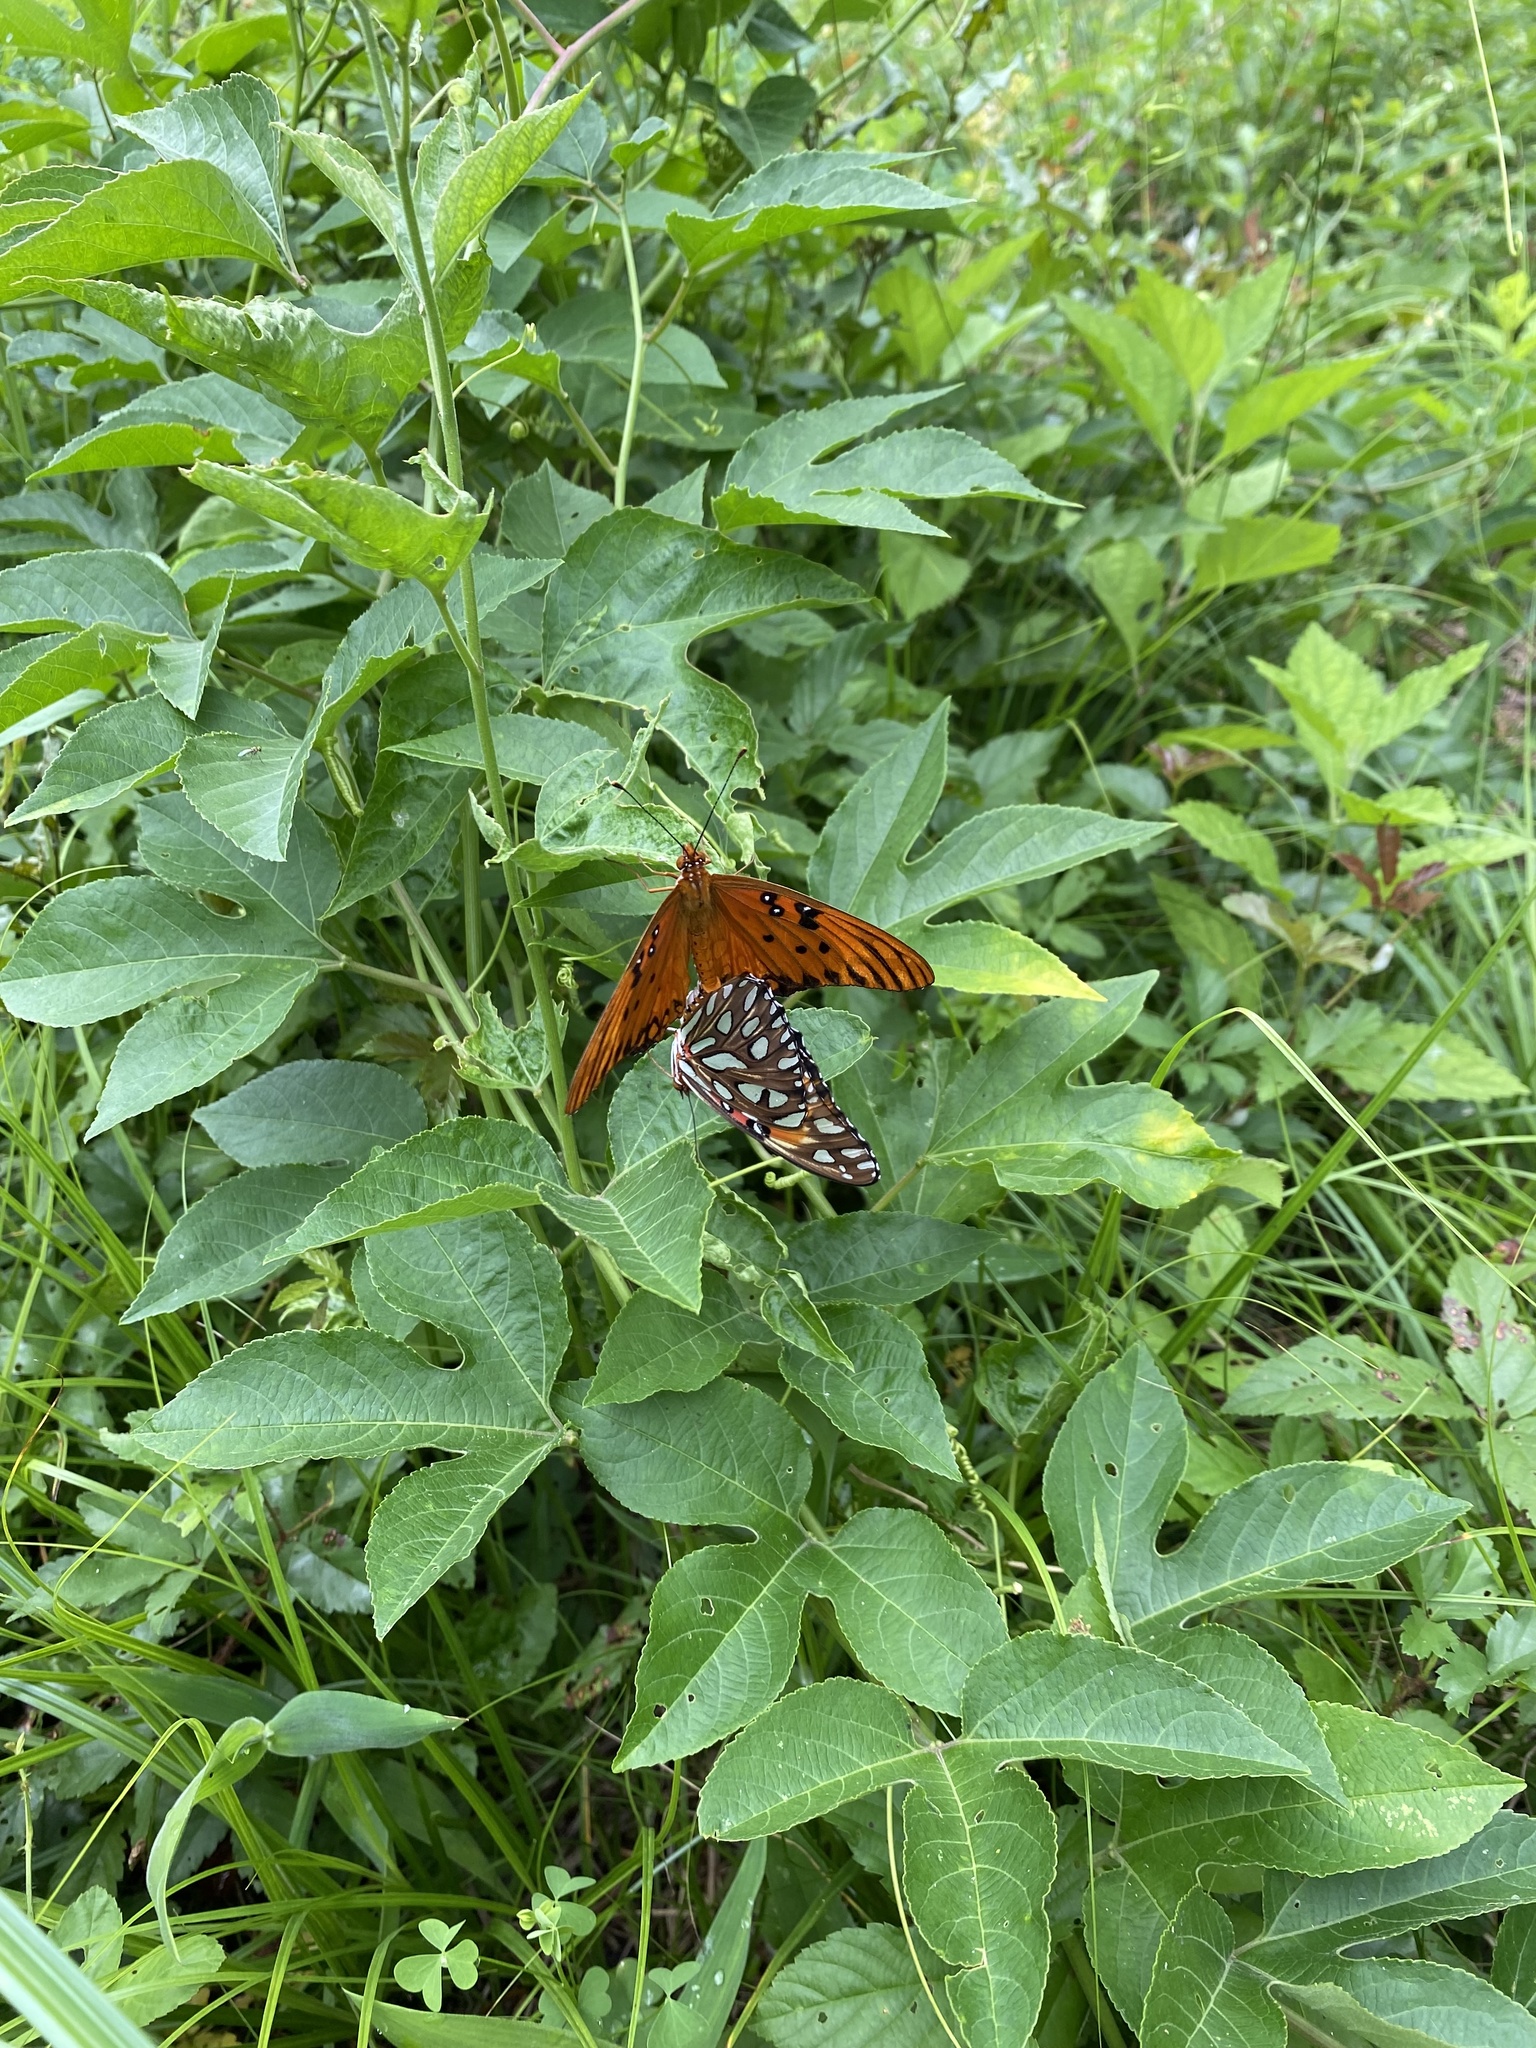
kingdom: Animalia
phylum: Arthropoda
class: Insecta
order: Lepidoptera
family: Nymphalidae
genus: Dione
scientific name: Dione vanillae
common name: Gulf fritillary
